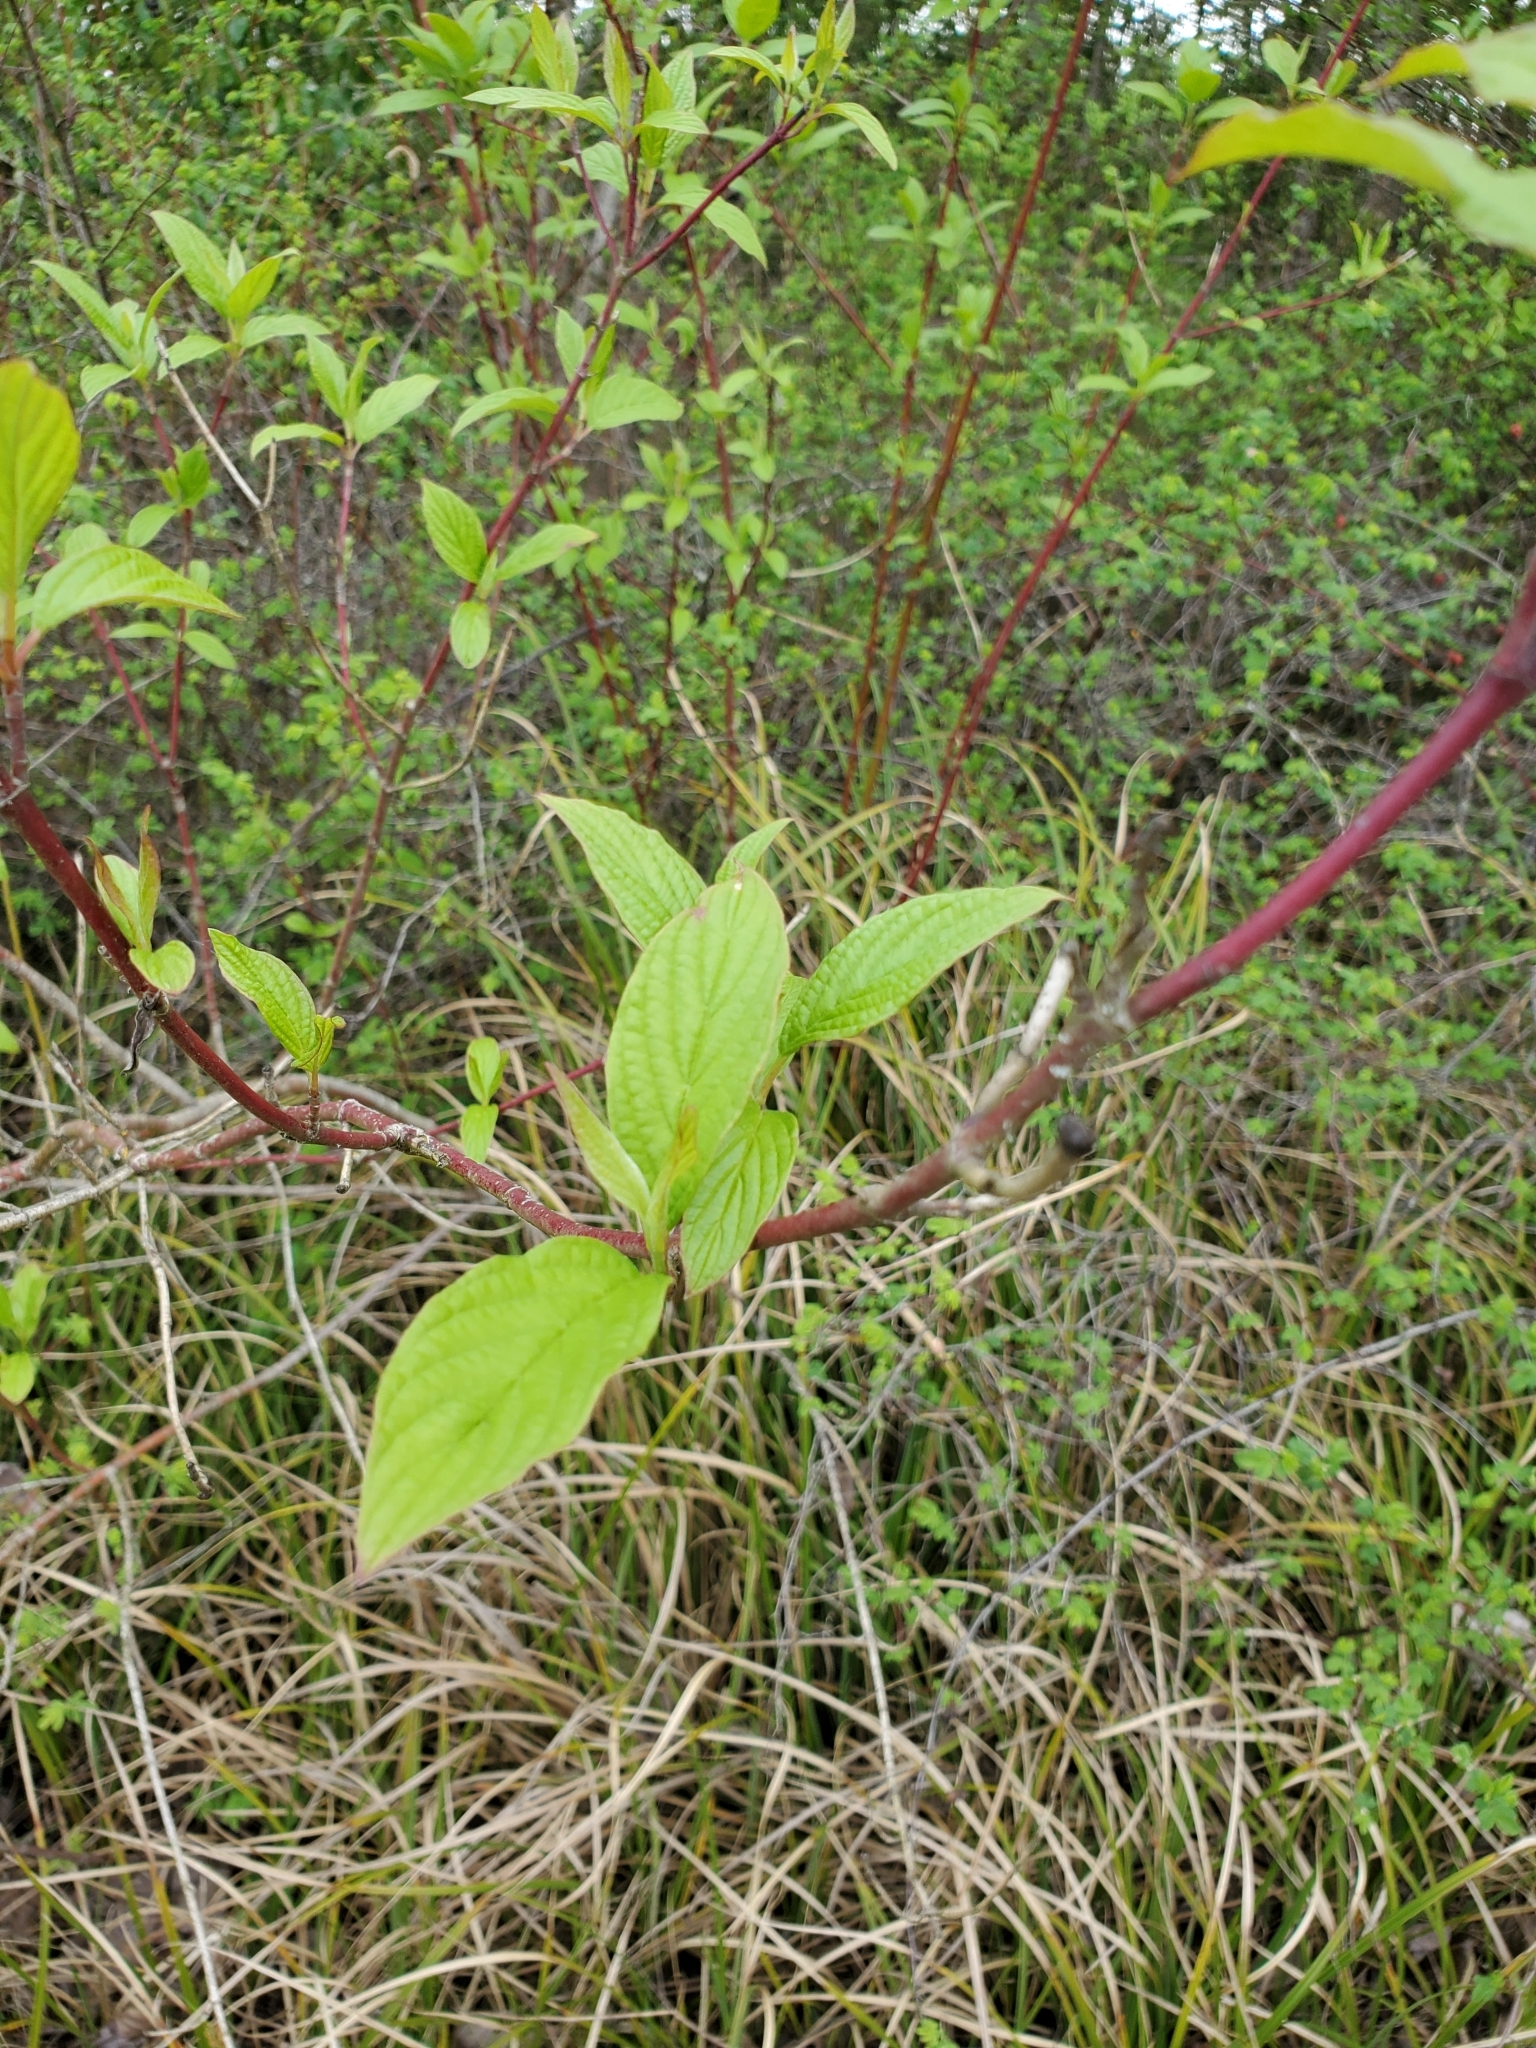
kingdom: Plantae
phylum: Tracheophyta
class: Magnoliopsida
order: Cornales
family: Cornaceae
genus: Cornus
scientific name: Cornus sericea
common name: Red-osier dogwood
